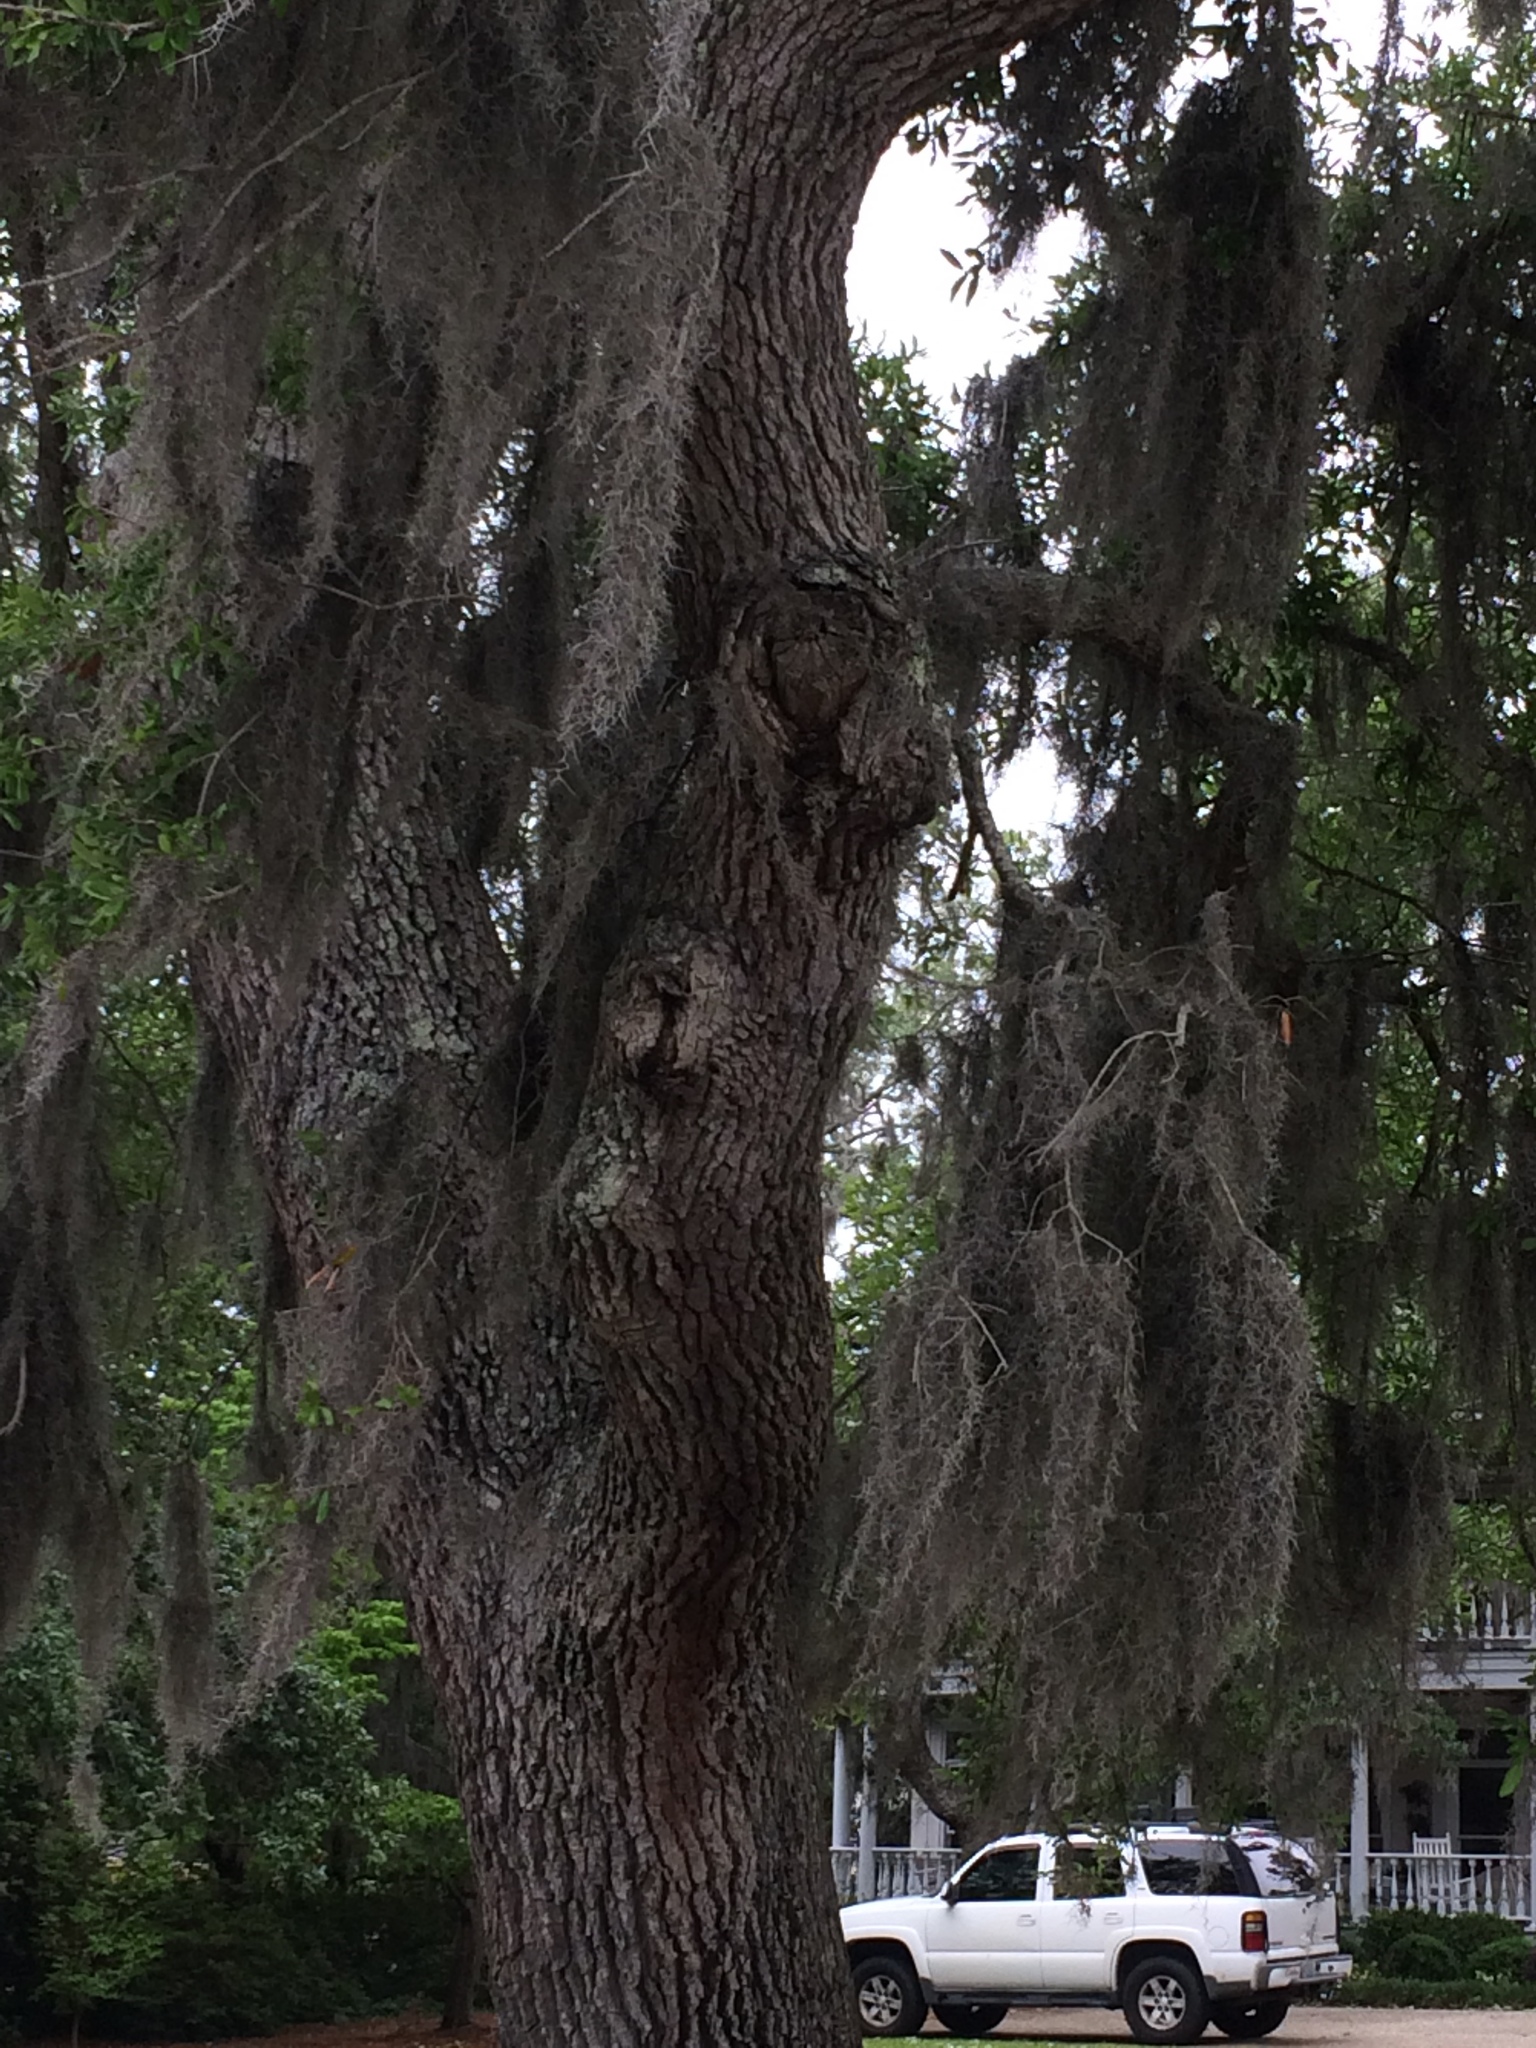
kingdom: Plantae
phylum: Tracheophyta
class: Liliopsida
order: Poales
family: Bromeliaceae
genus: Tillandsia
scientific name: Tillandsia usneoides
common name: Spanish moss
